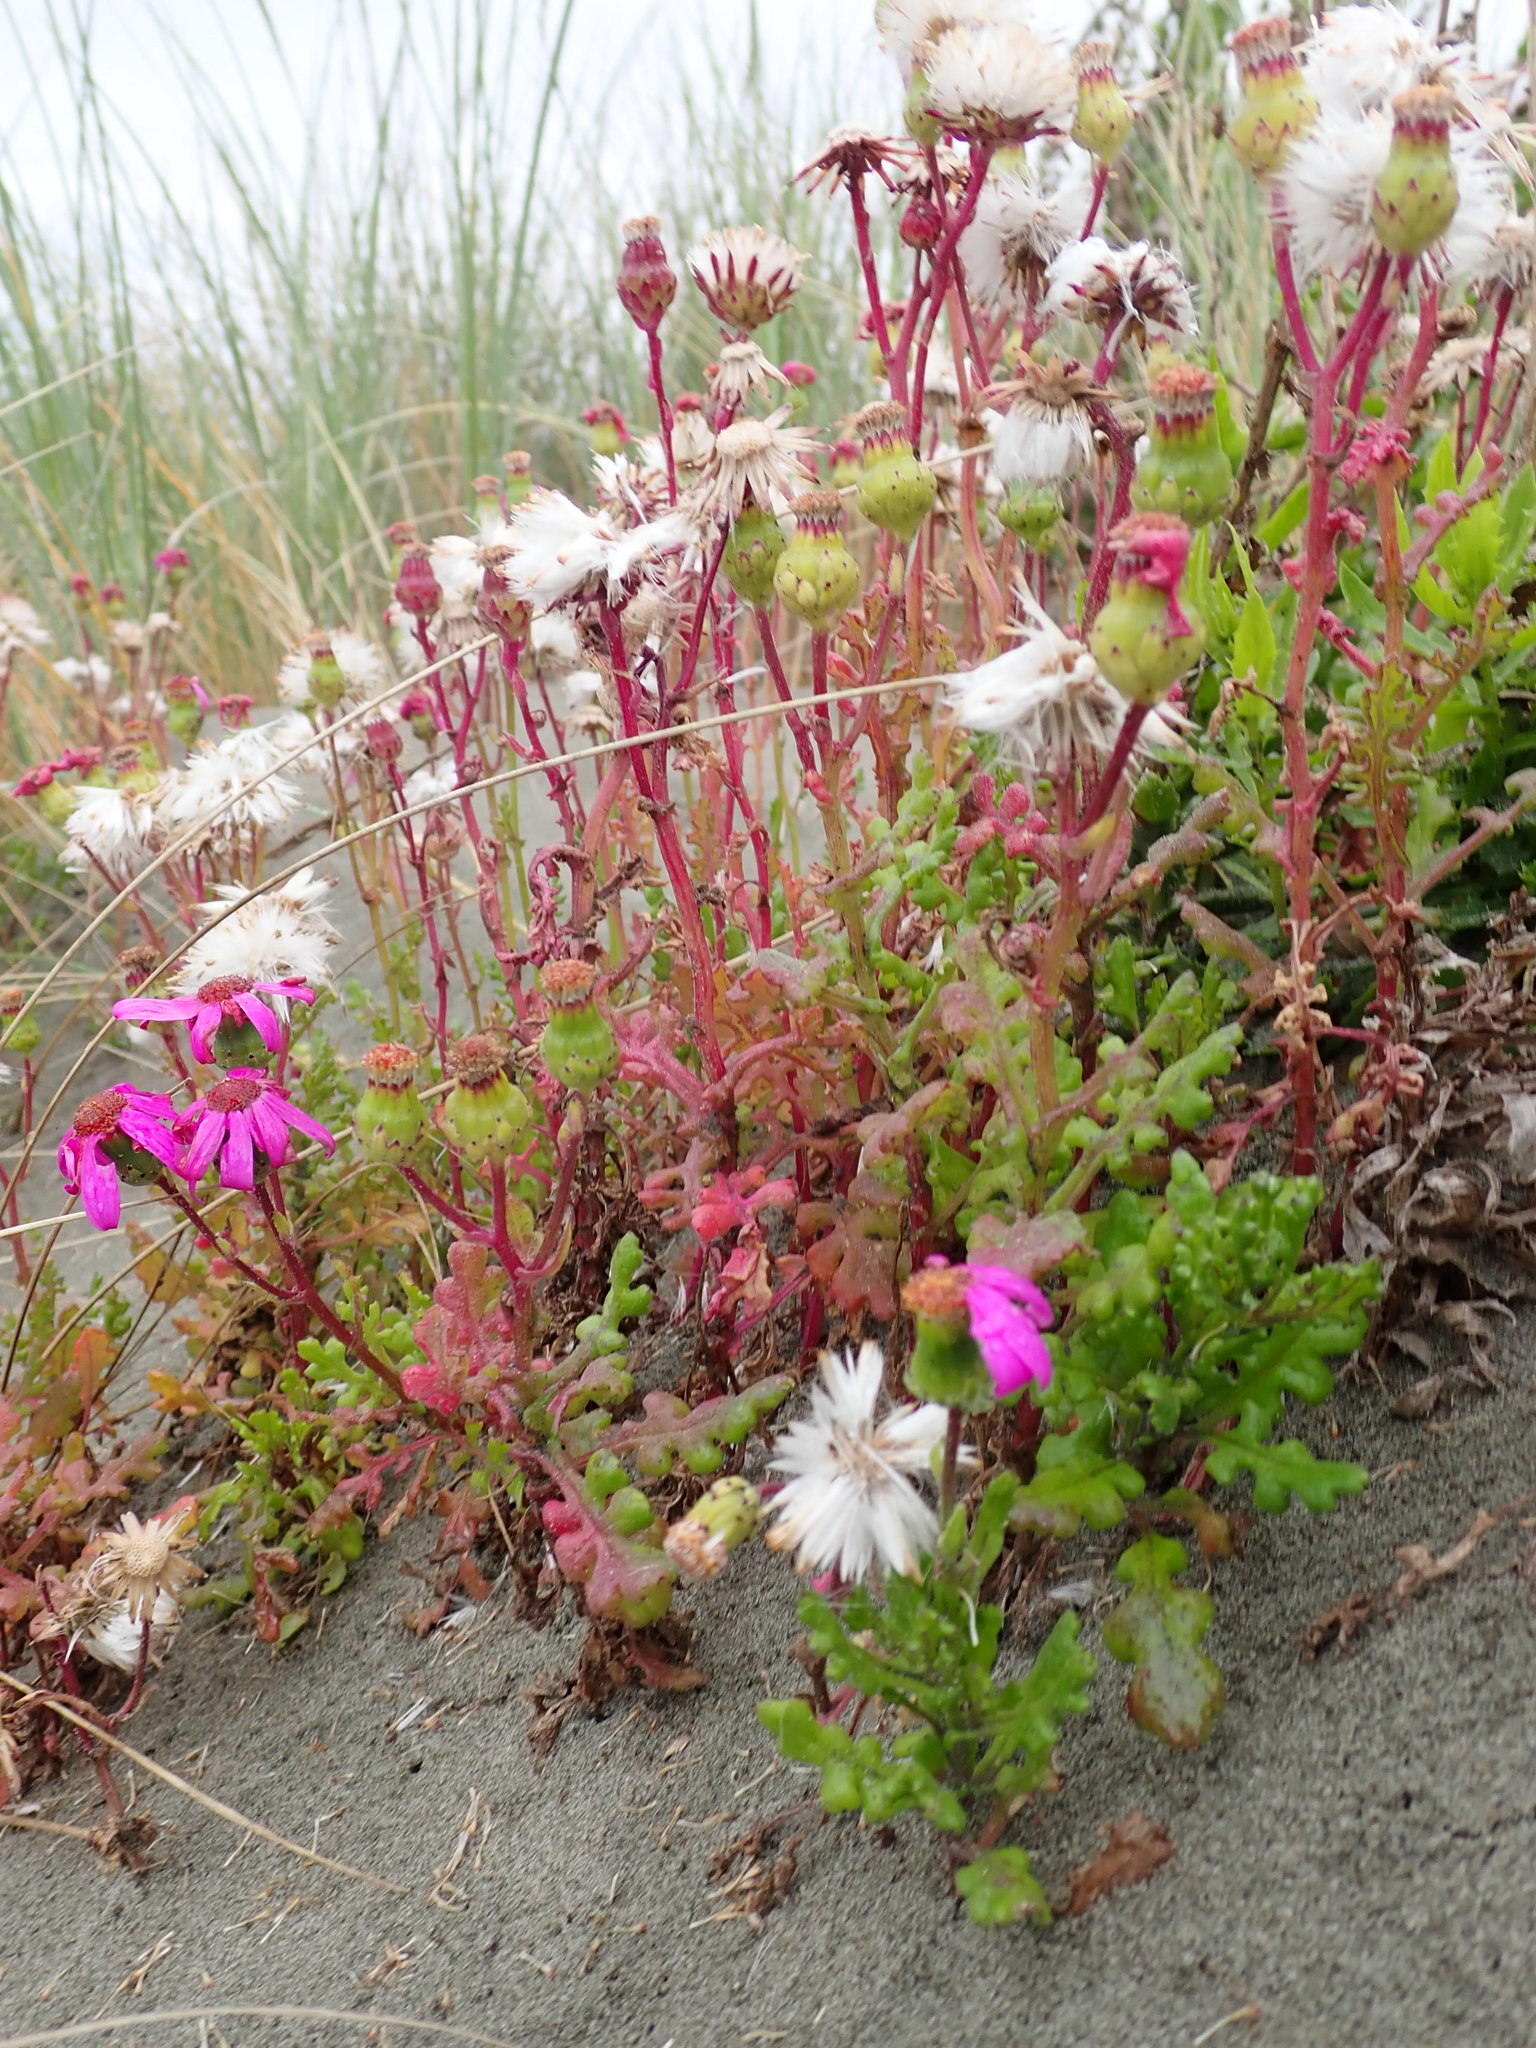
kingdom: Plantae
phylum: Tracheophyta
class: Magnoliopsida
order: Asterales
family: Asteraceae
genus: Senecio
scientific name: Senecio elegans
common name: Purple groundsel
